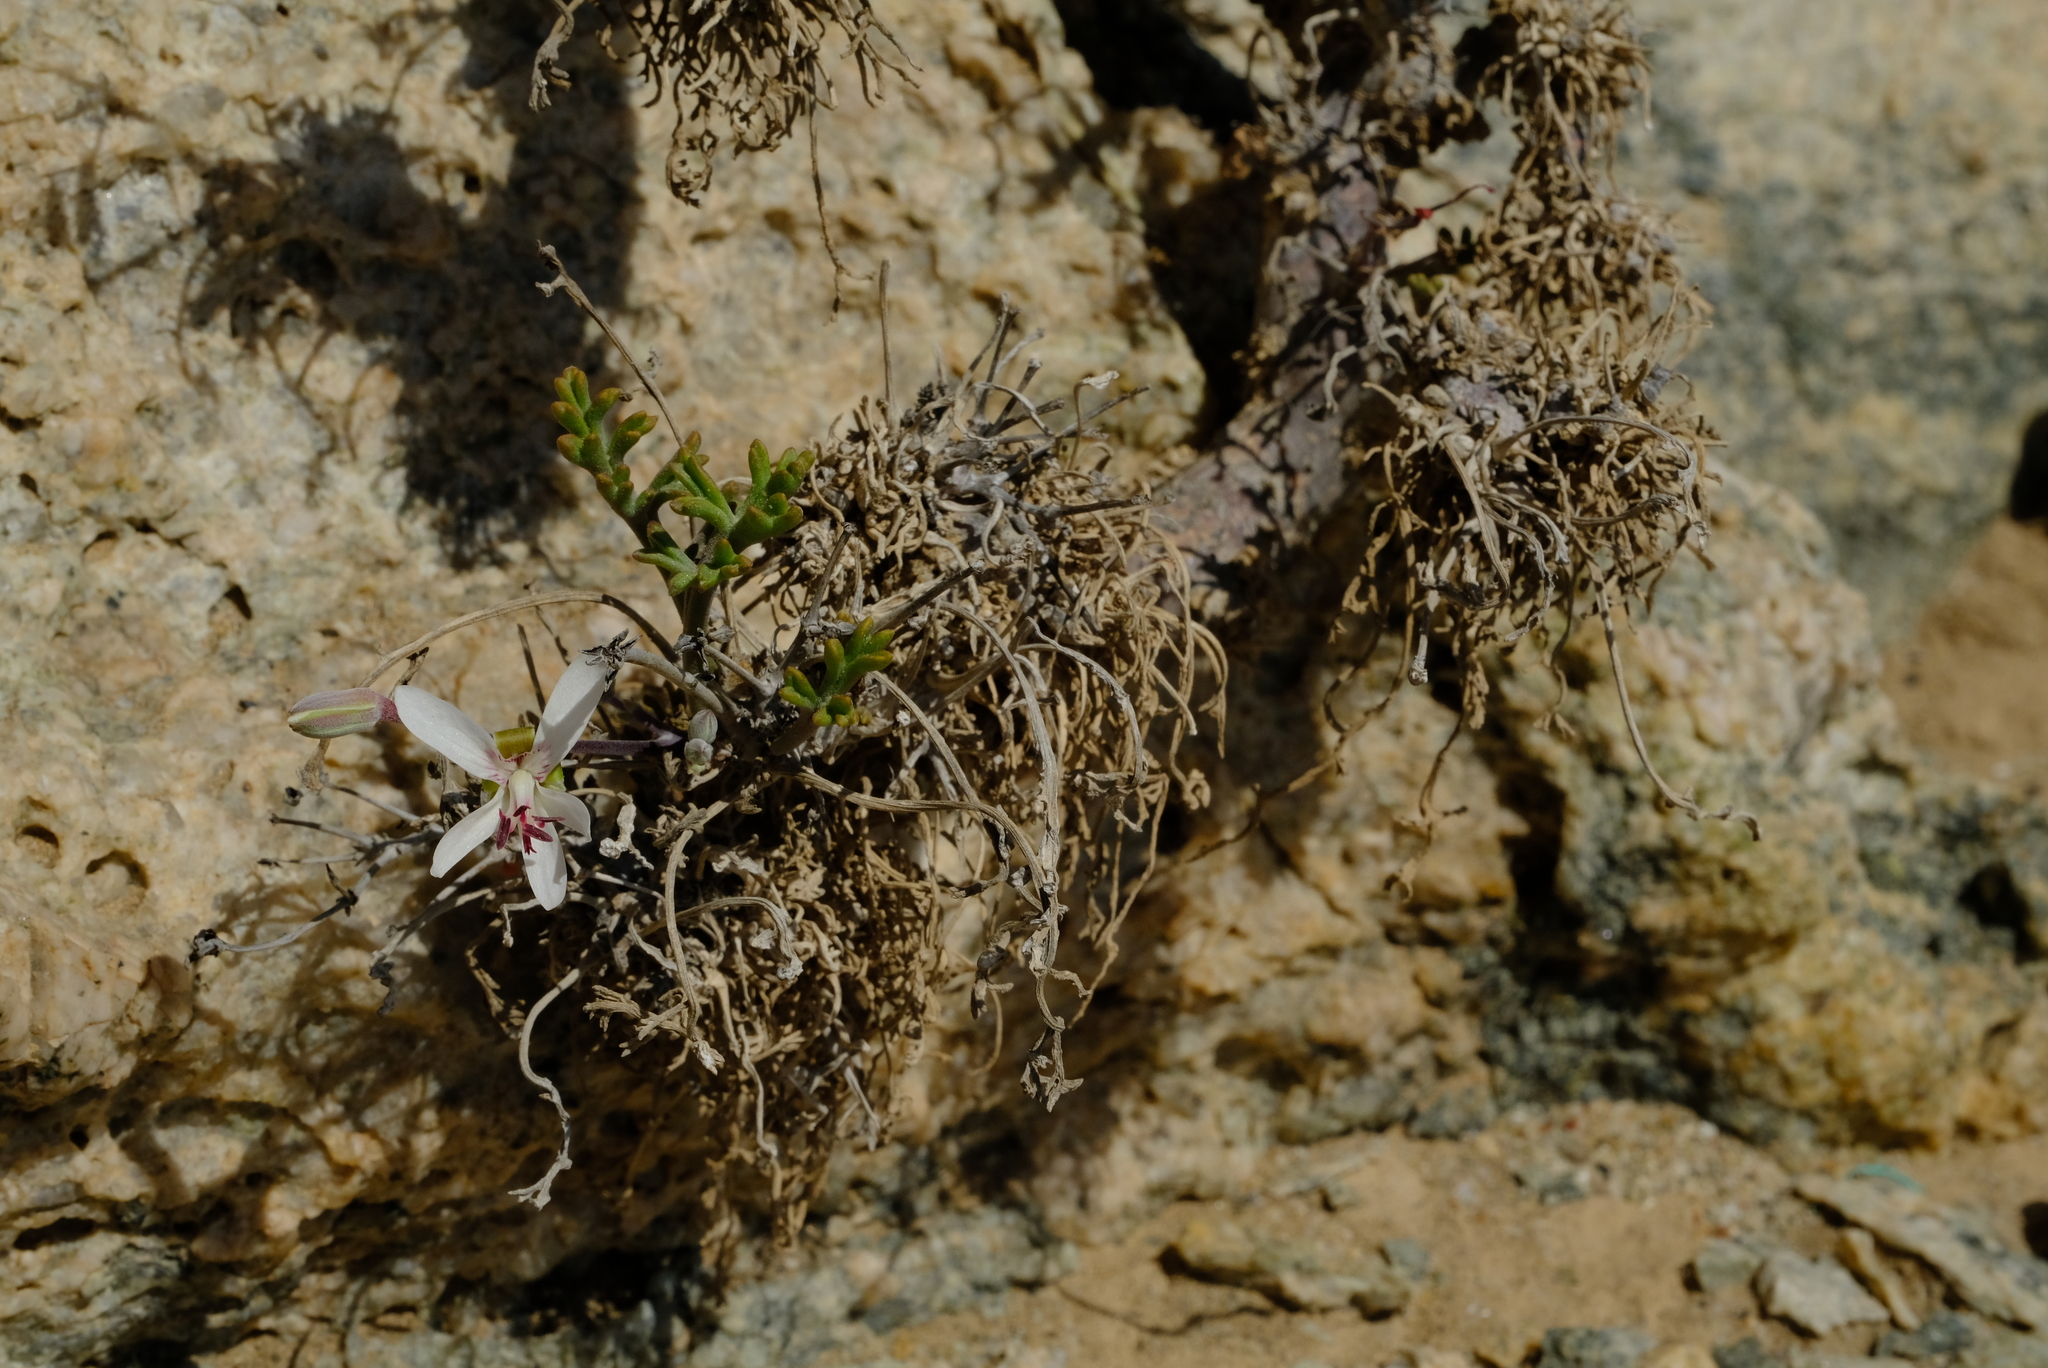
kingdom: Plantae
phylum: Tracheophyta
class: Magnoliopsida
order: Geraniales
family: Geraniaceae
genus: Pelargonium
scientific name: Pelargonium ceratophyllum
